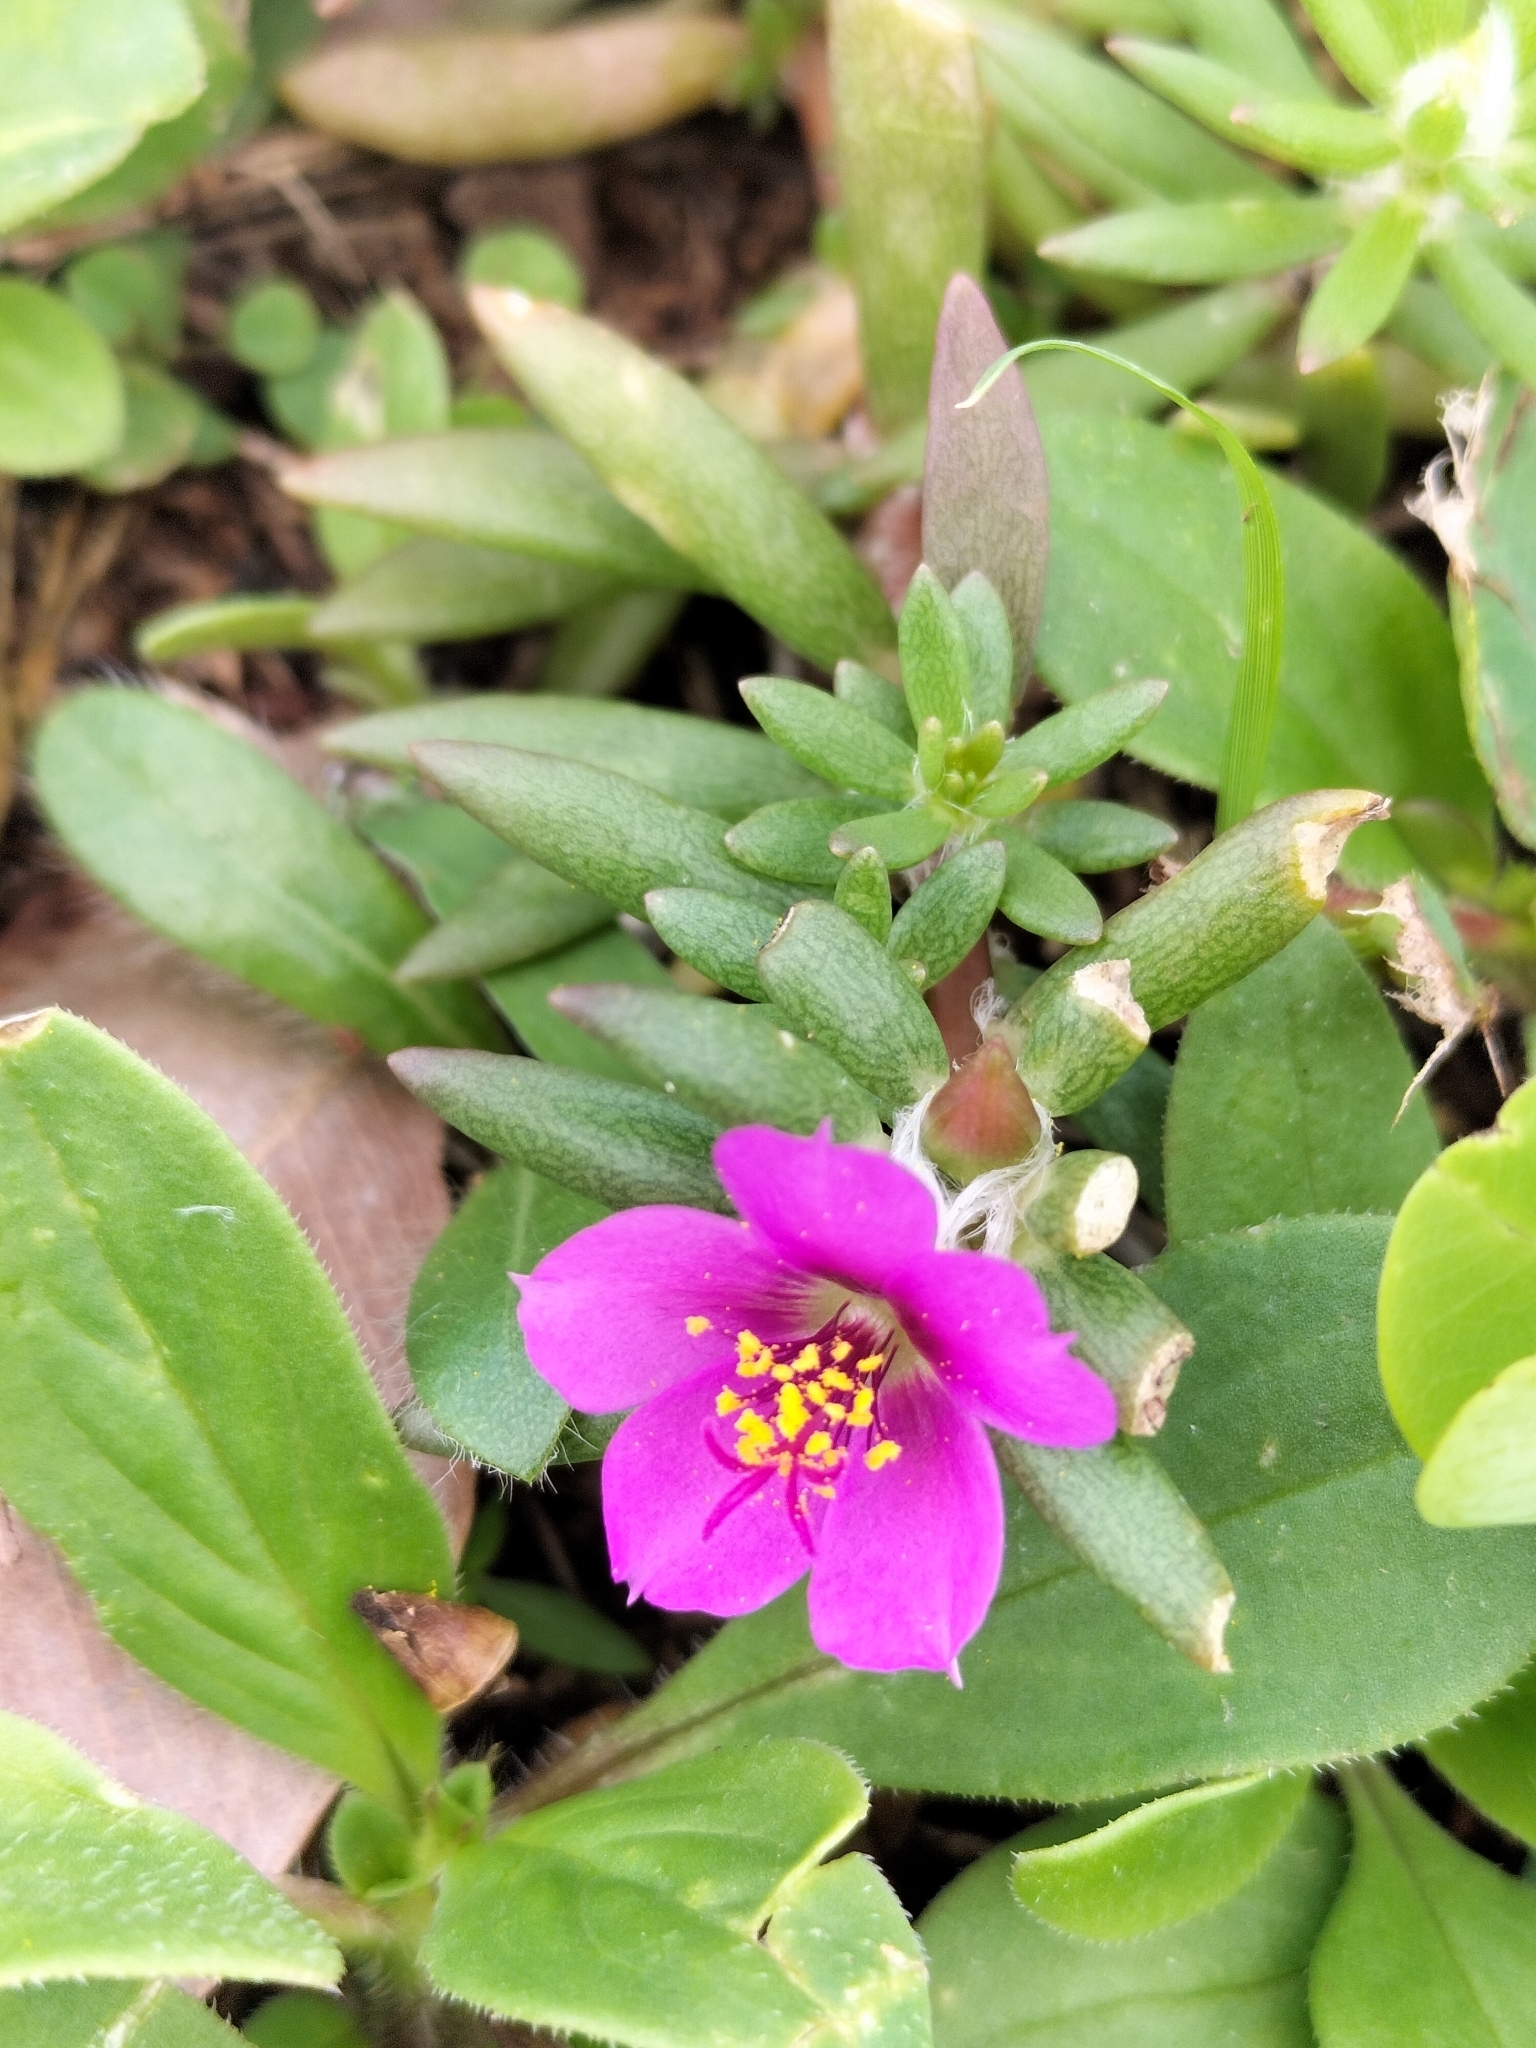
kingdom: Plantae
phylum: Tracheophyta
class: Magnoliopsida
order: Caryophyllales
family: Portulacaceae
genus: Portulaca
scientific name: Portulaca pilosa
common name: Kiss me quick
